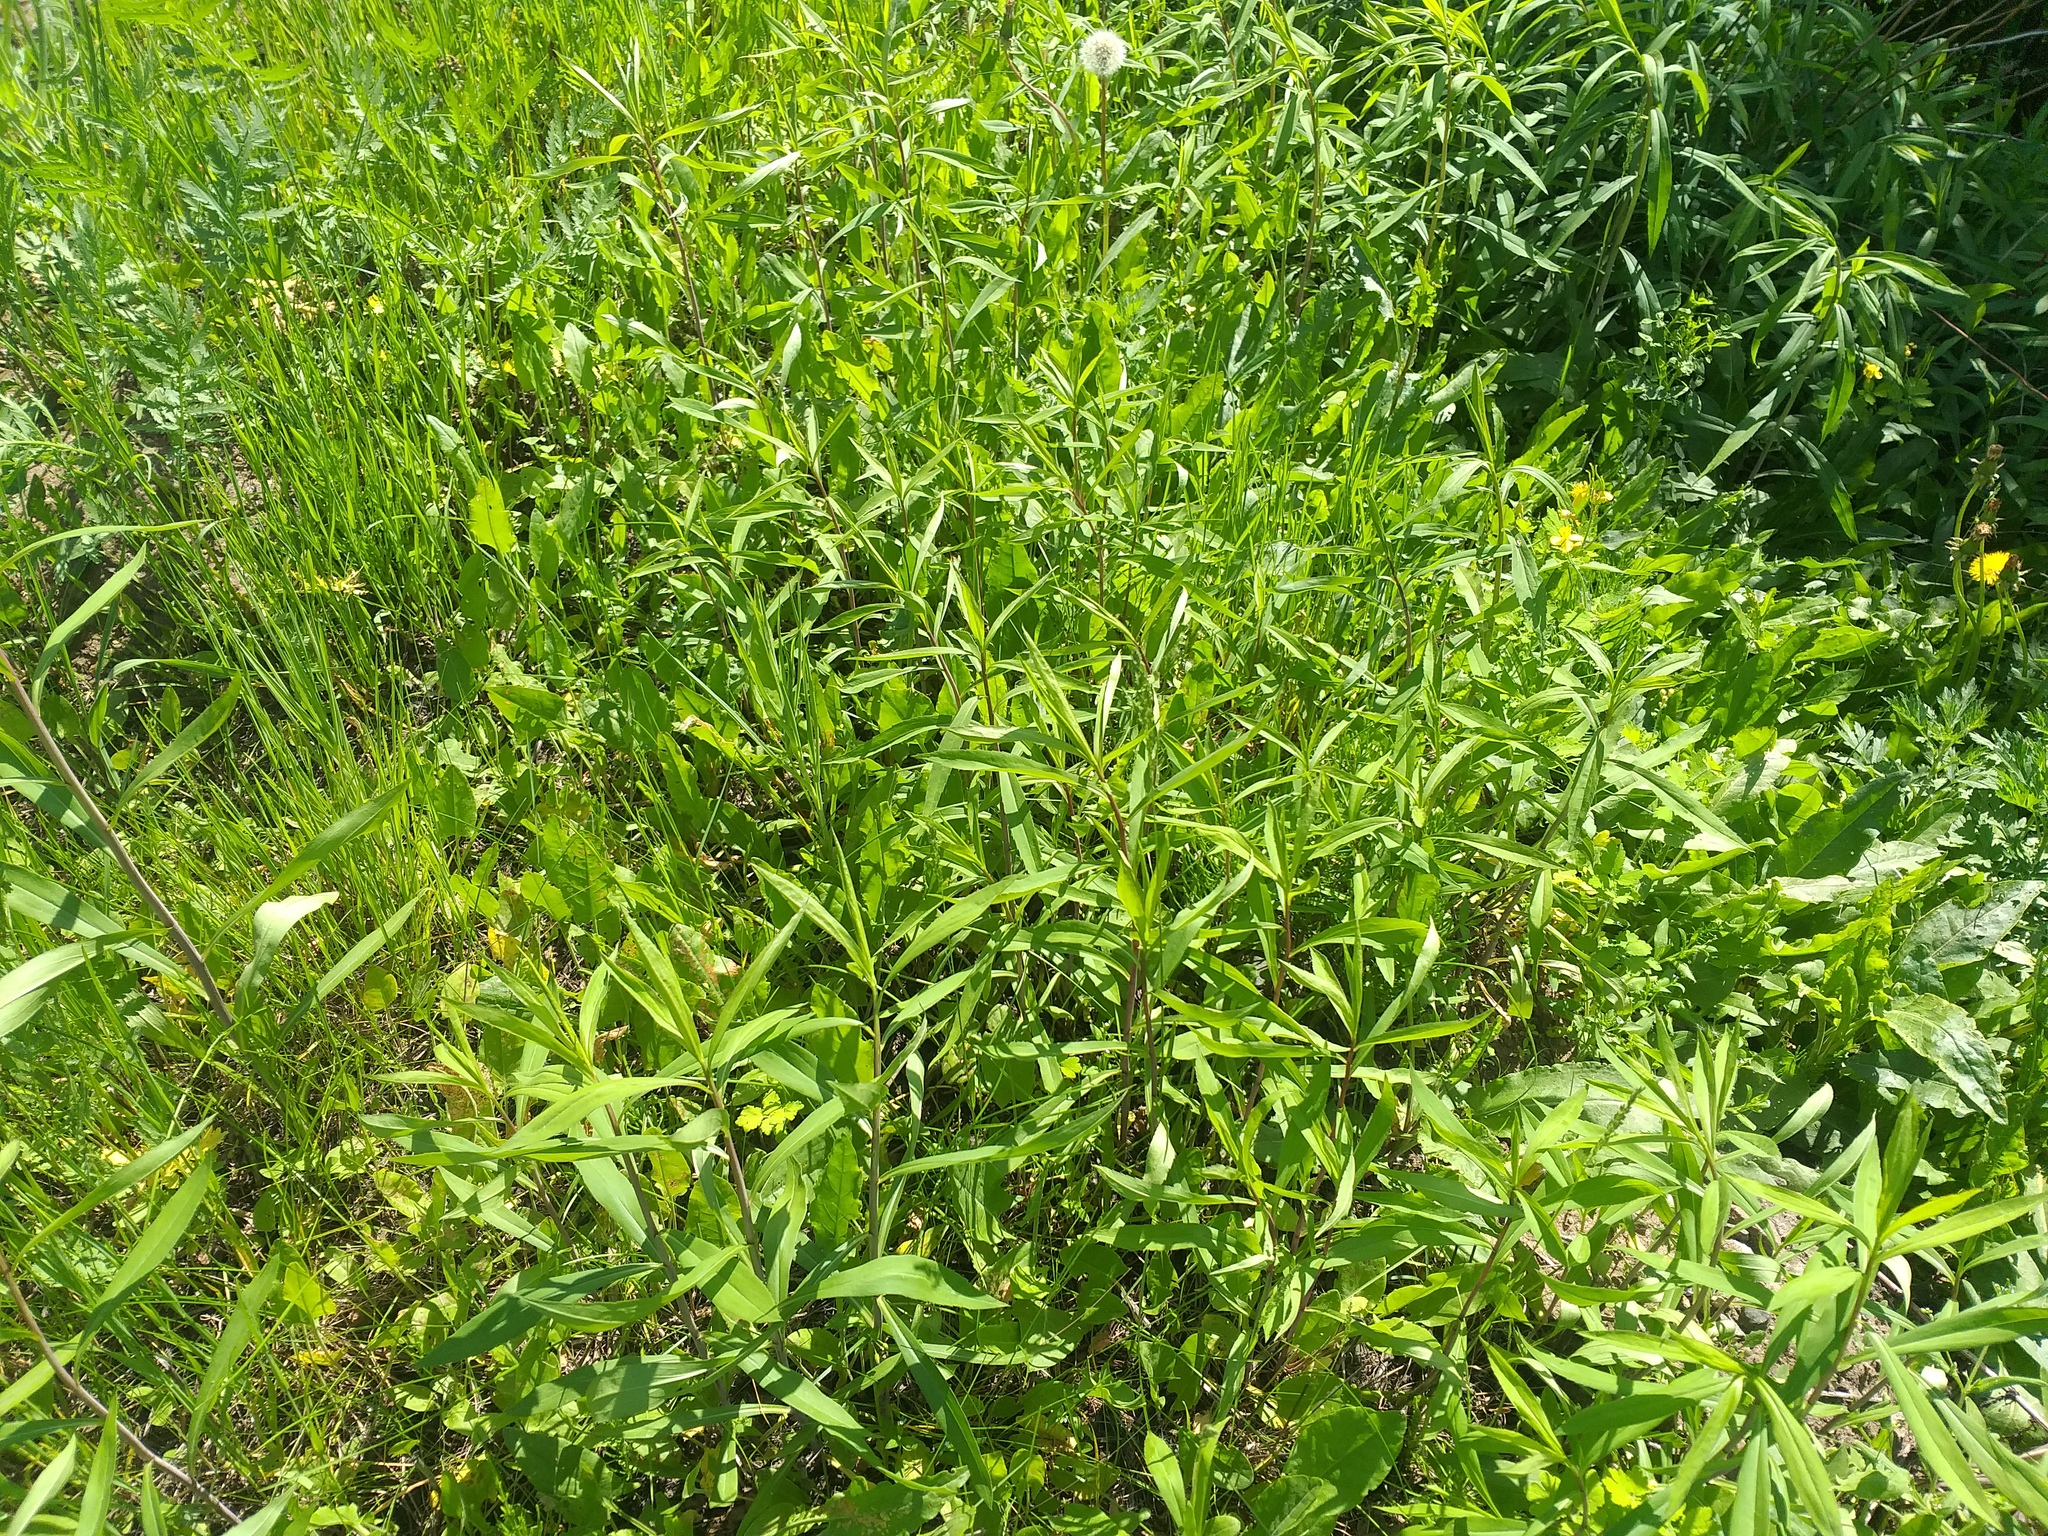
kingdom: Plantae
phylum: Tracheophyta
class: Magnoliopsida
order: Asterales
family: Asteraceae
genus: Solidago
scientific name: Solidago gigantea
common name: Giant goldenrod
